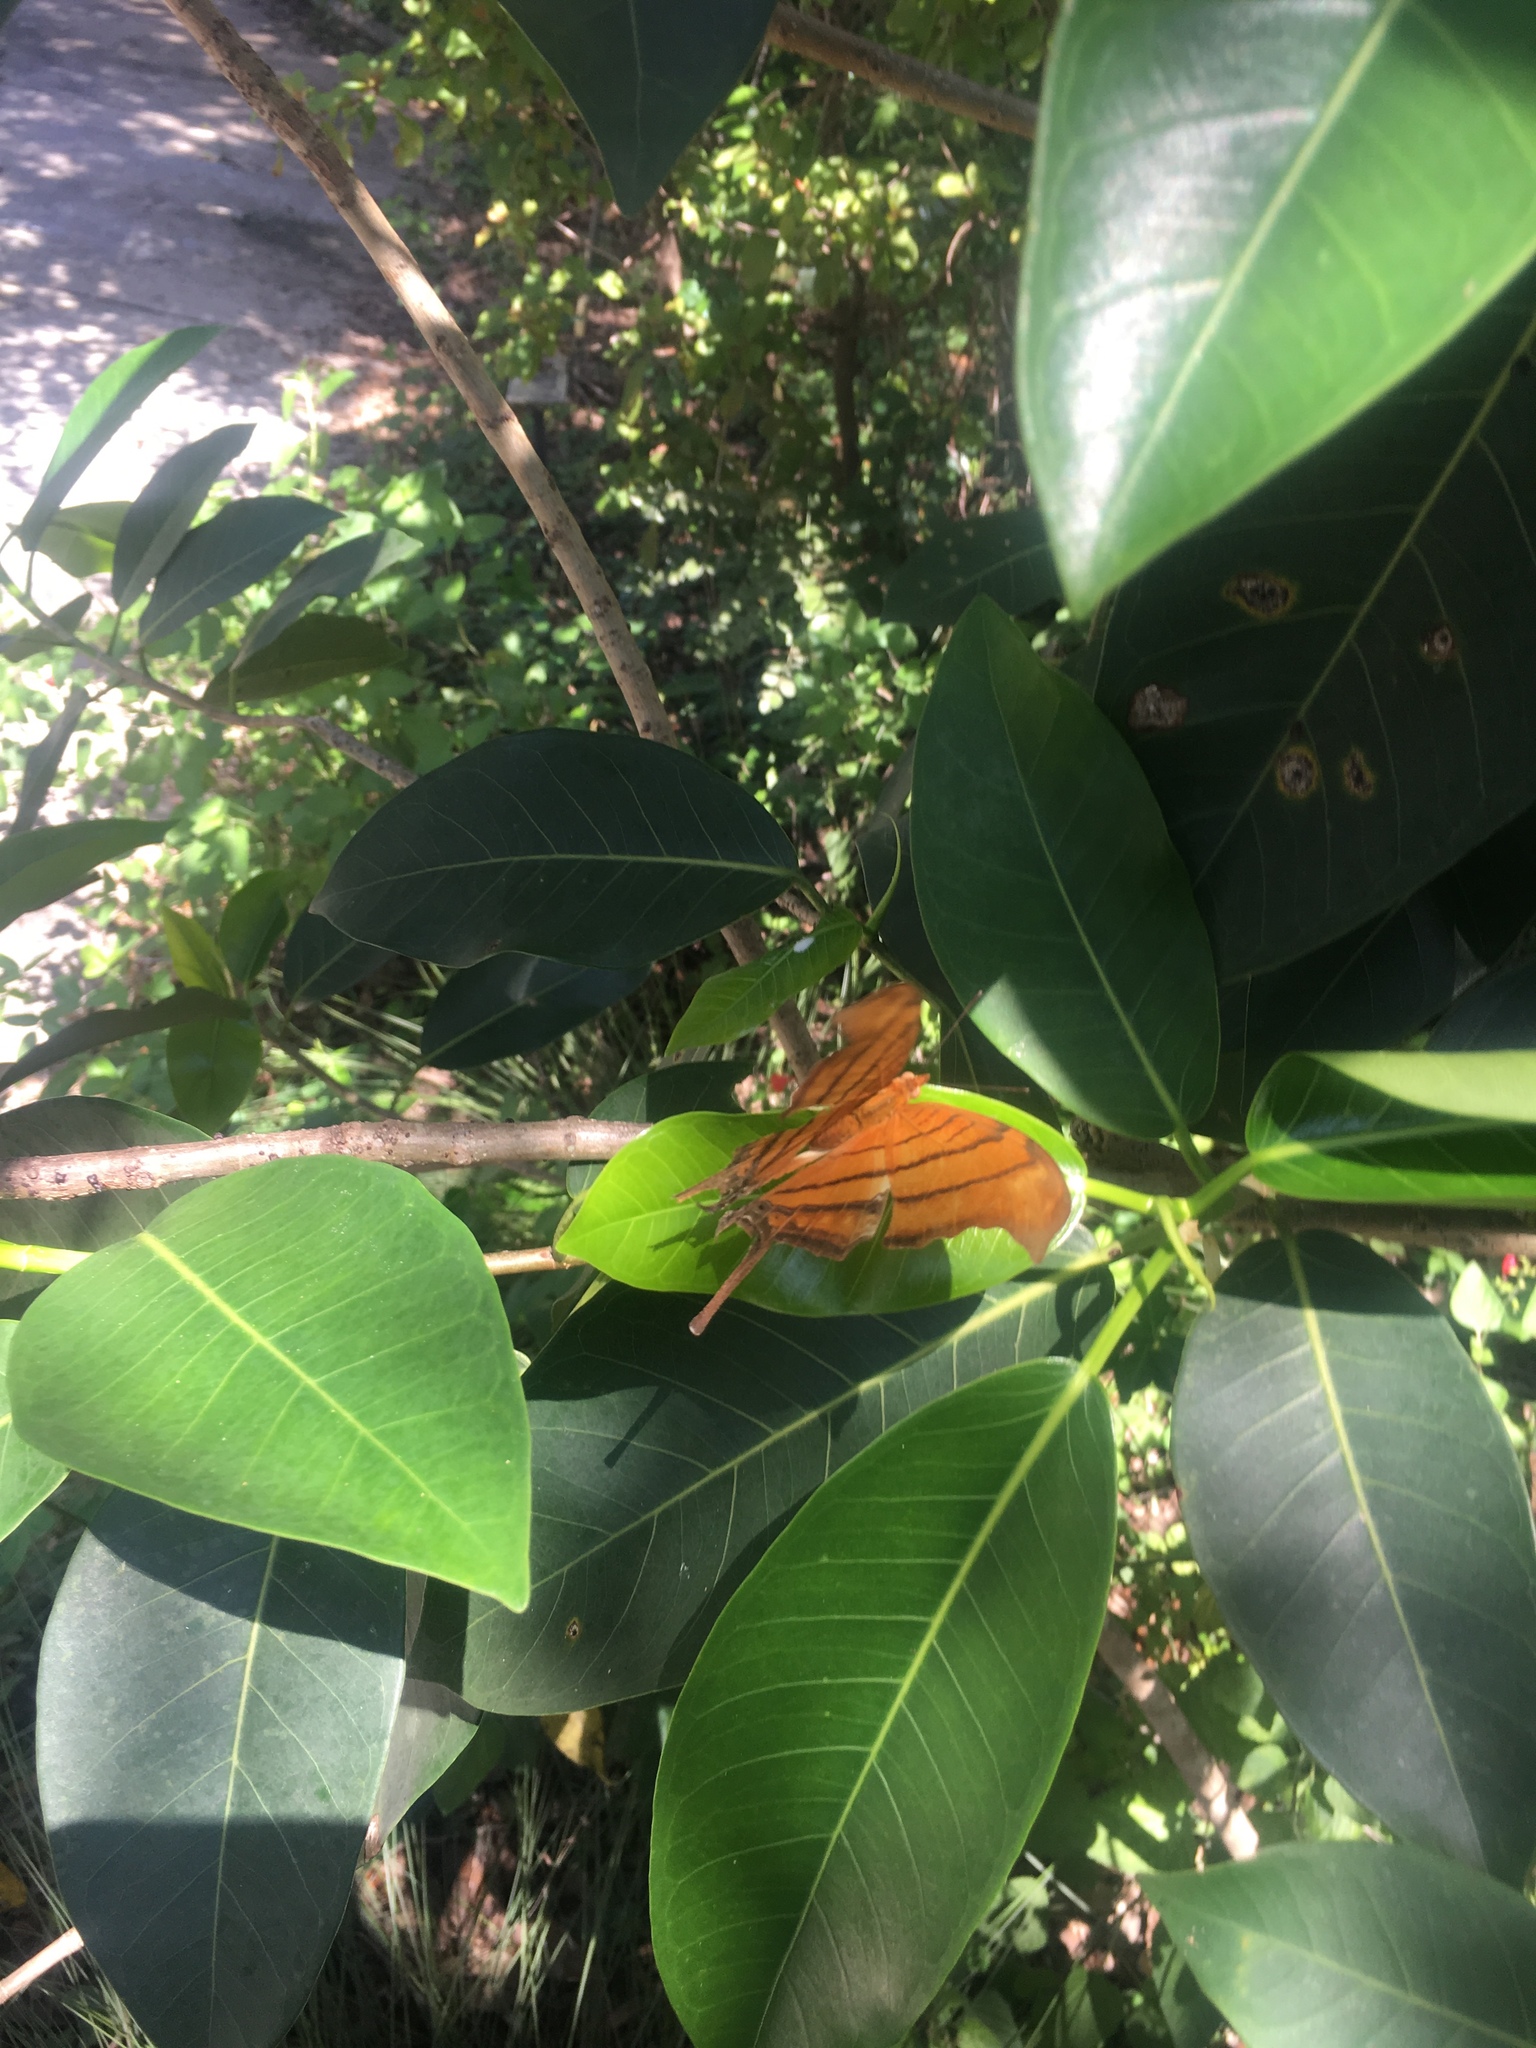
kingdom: Animalia
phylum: Arthropoda
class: Insecta
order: Lepidoptera
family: Nymphalidae
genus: Marpesia
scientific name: Marpesia petreus
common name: Red dagger wing
